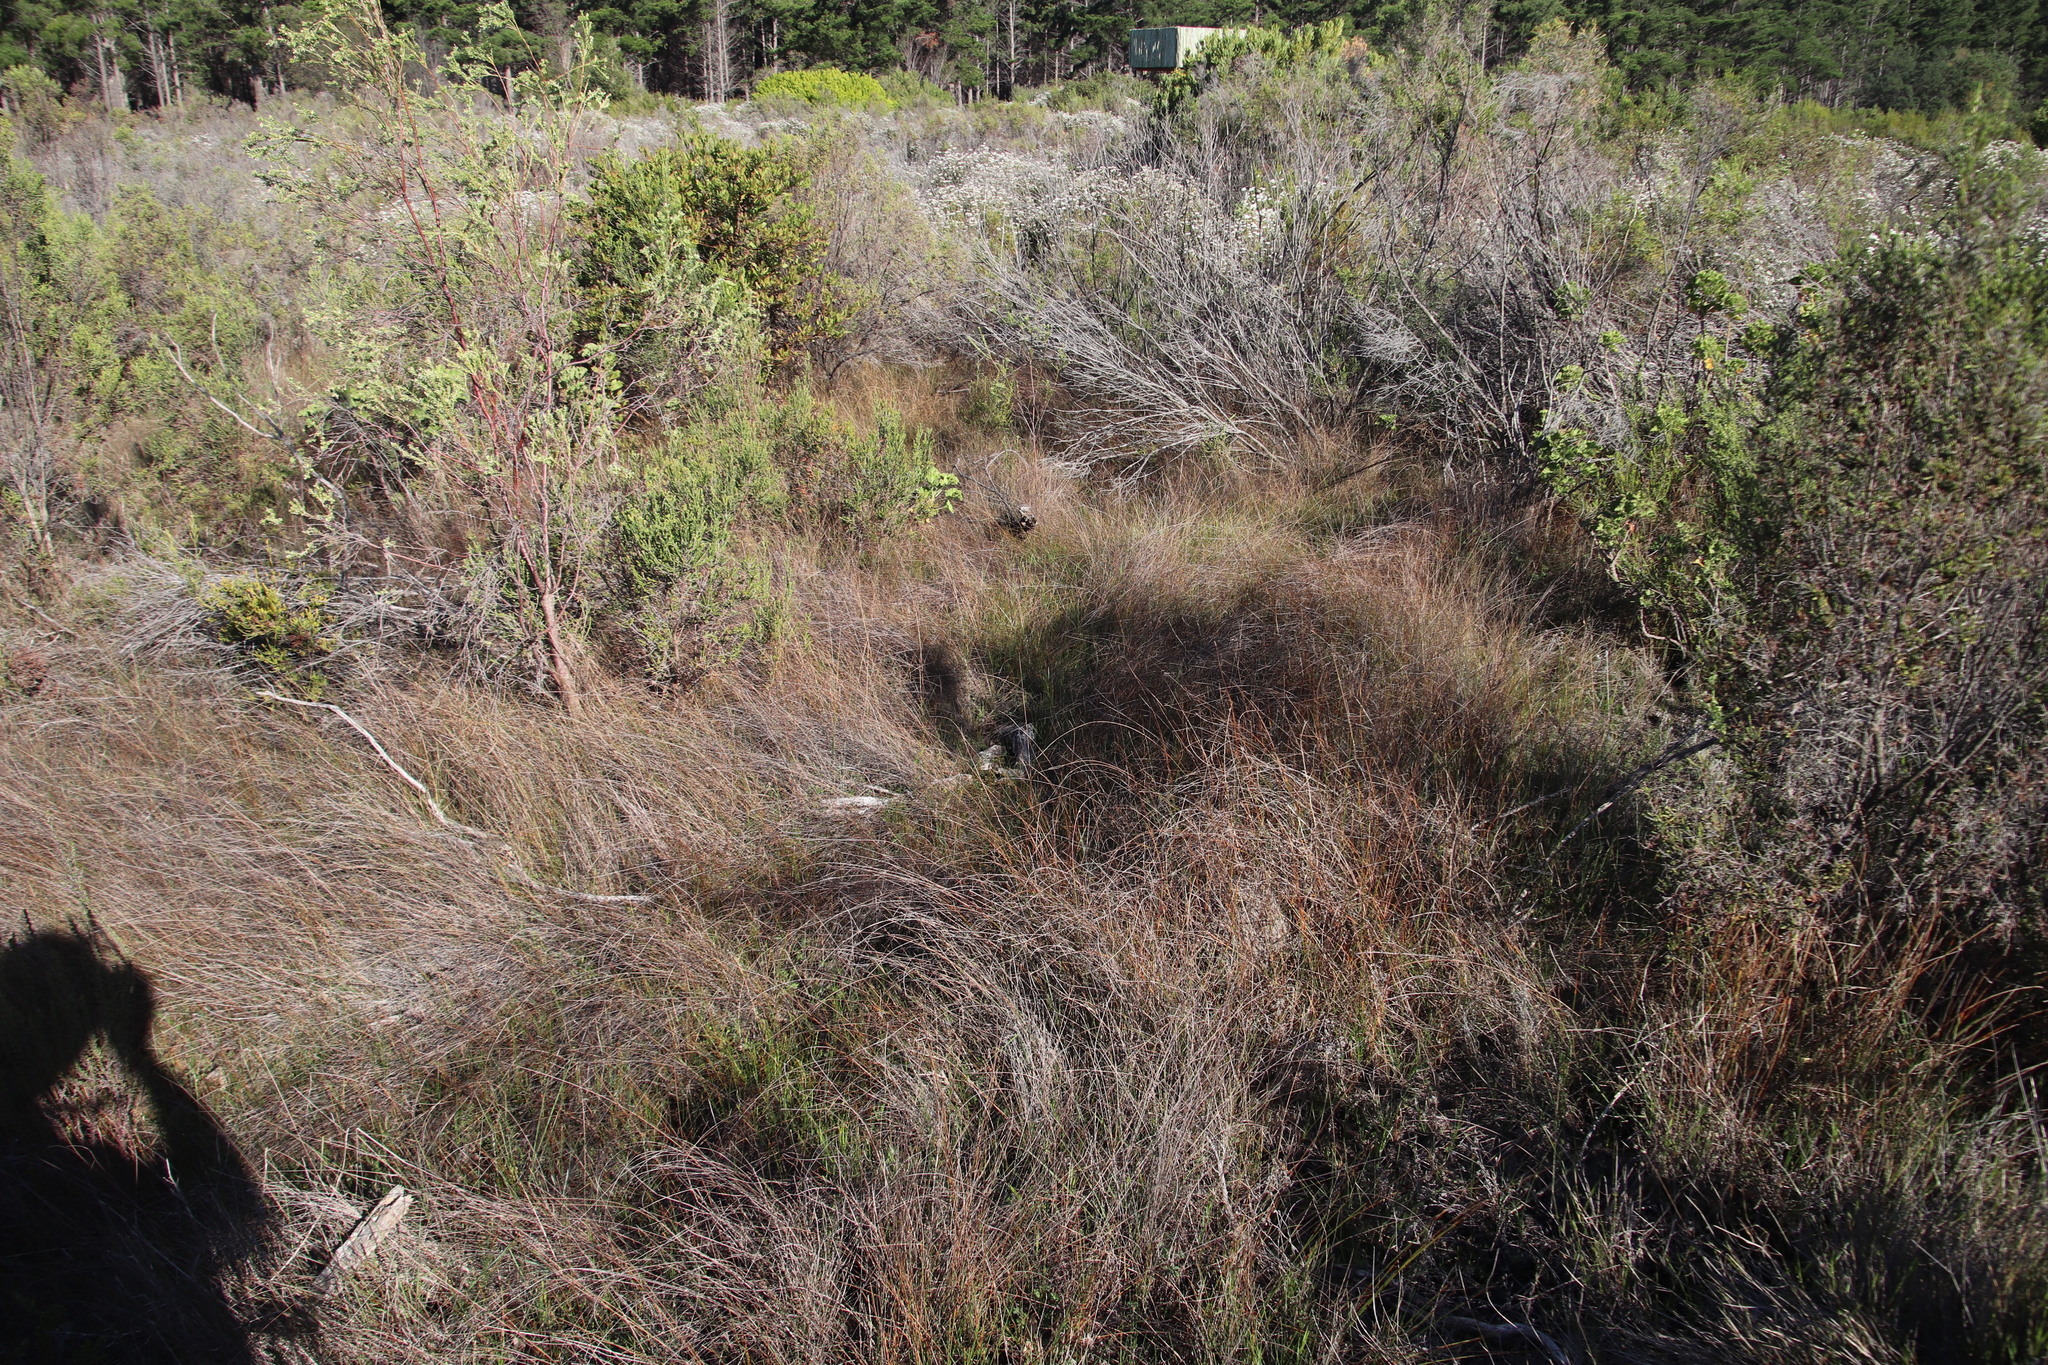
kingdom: Plantae
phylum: Tracheophyta
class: Liliopsida
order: Poales
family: Cyperaceae
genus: Ficinia
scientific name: Ficinia indica
